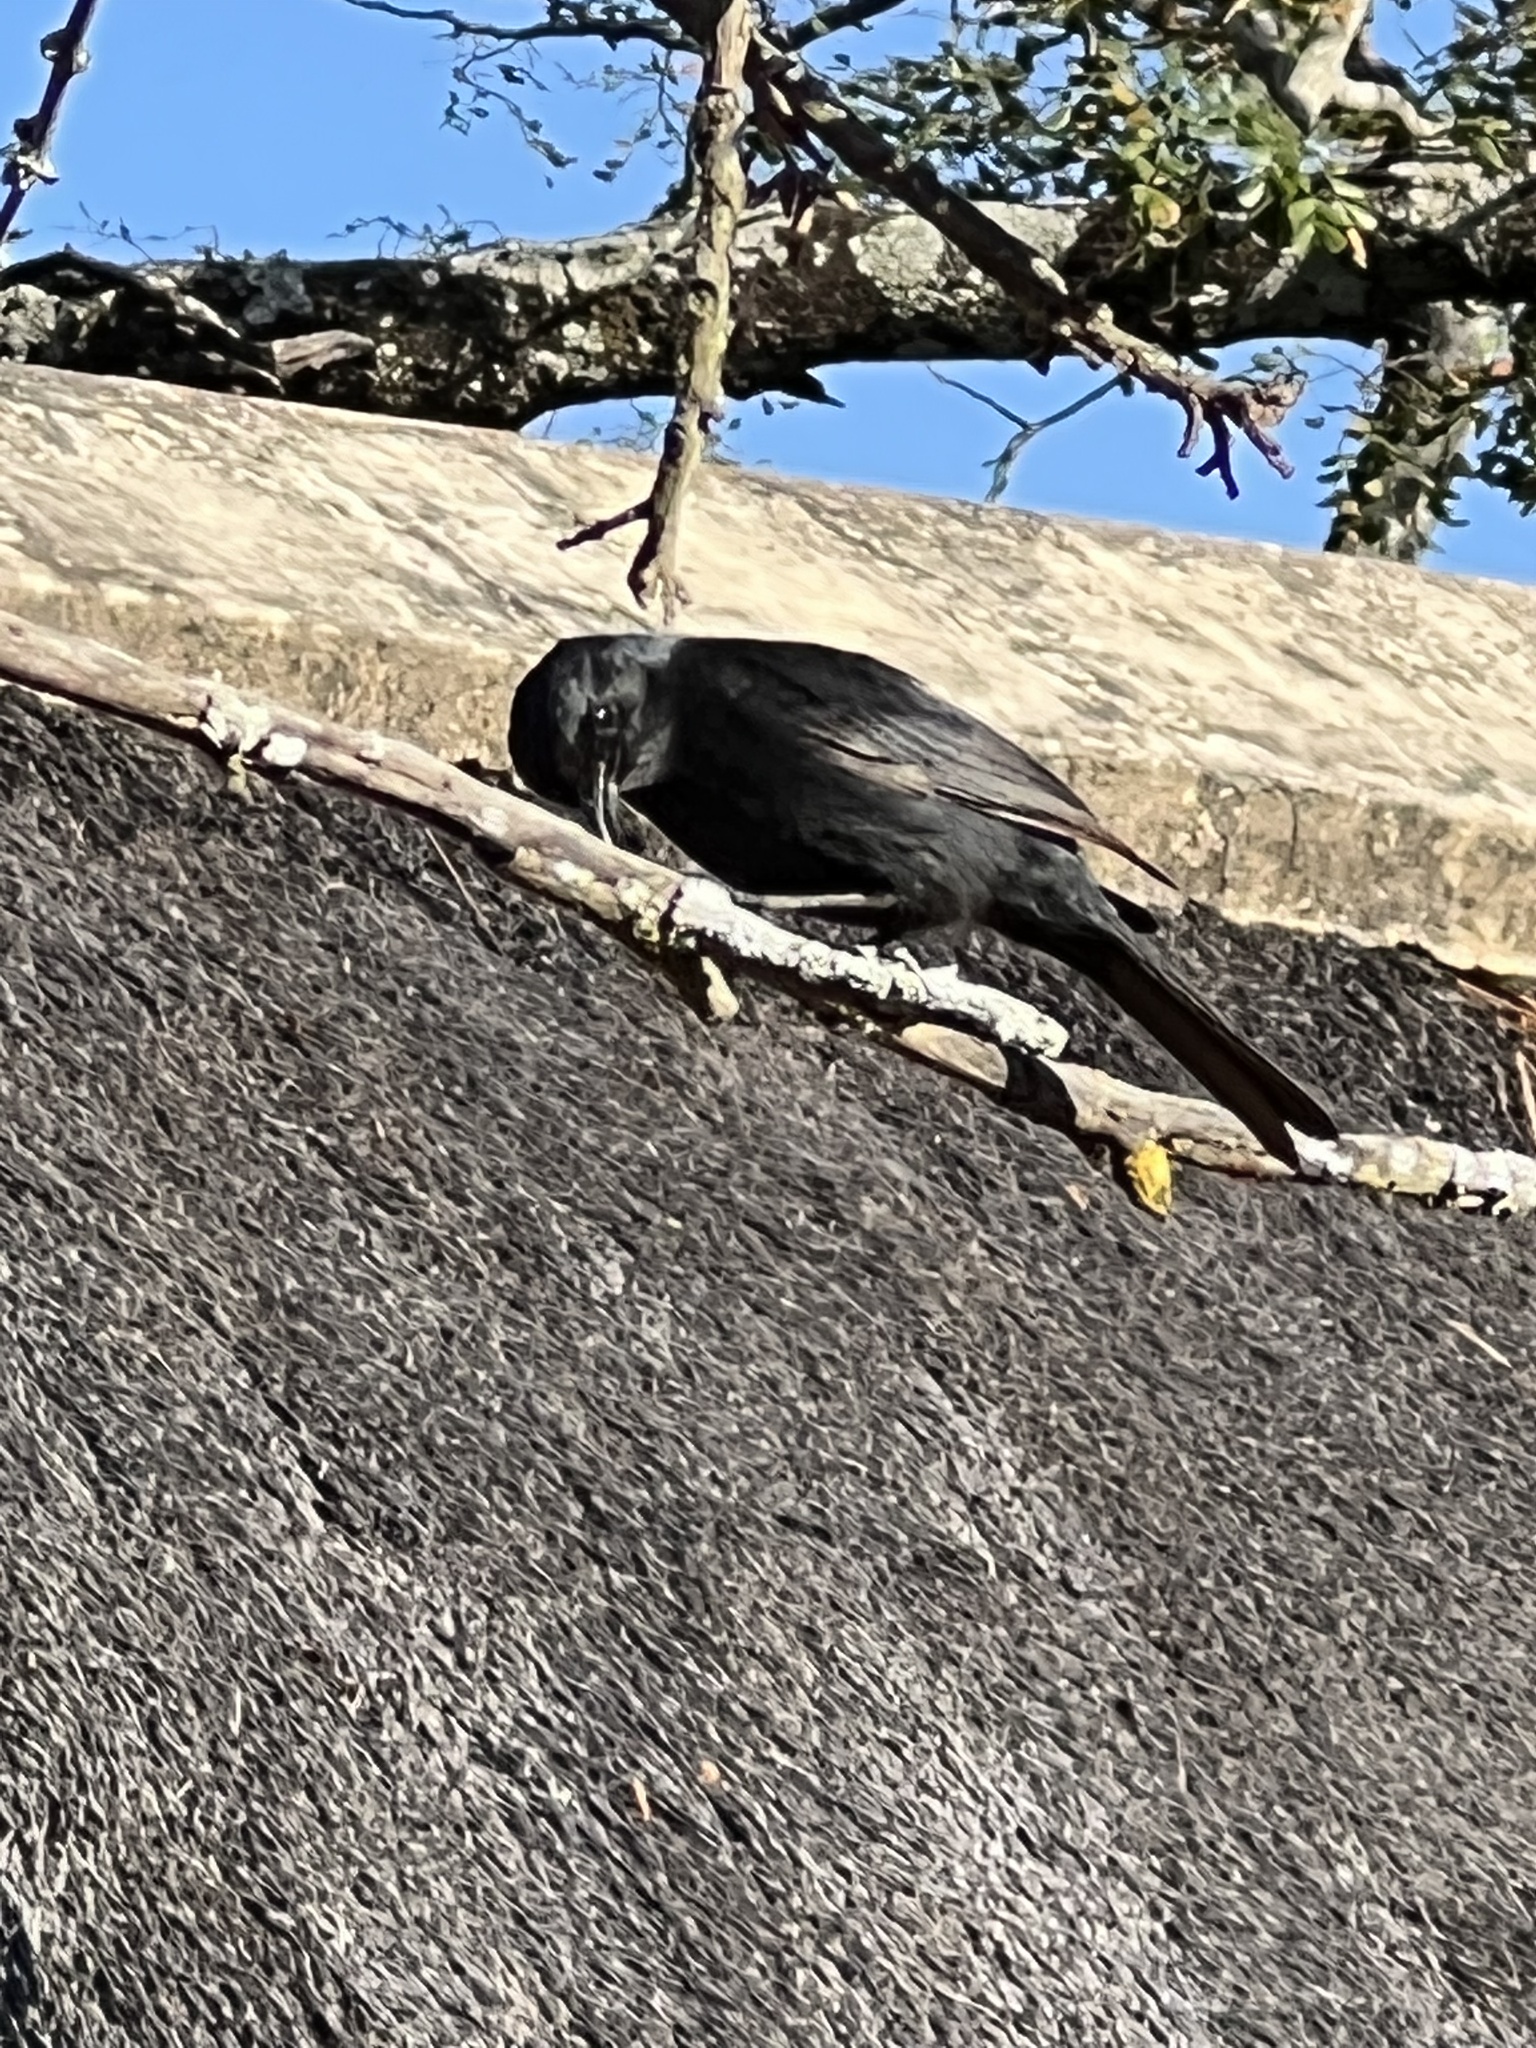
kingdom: Animalia
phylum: Chordata
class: Aves
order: Passeriformes
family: Dicruridae
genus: Dicrurus
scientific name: Dicrurus adsimilis
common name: Fork-tailed drongo
